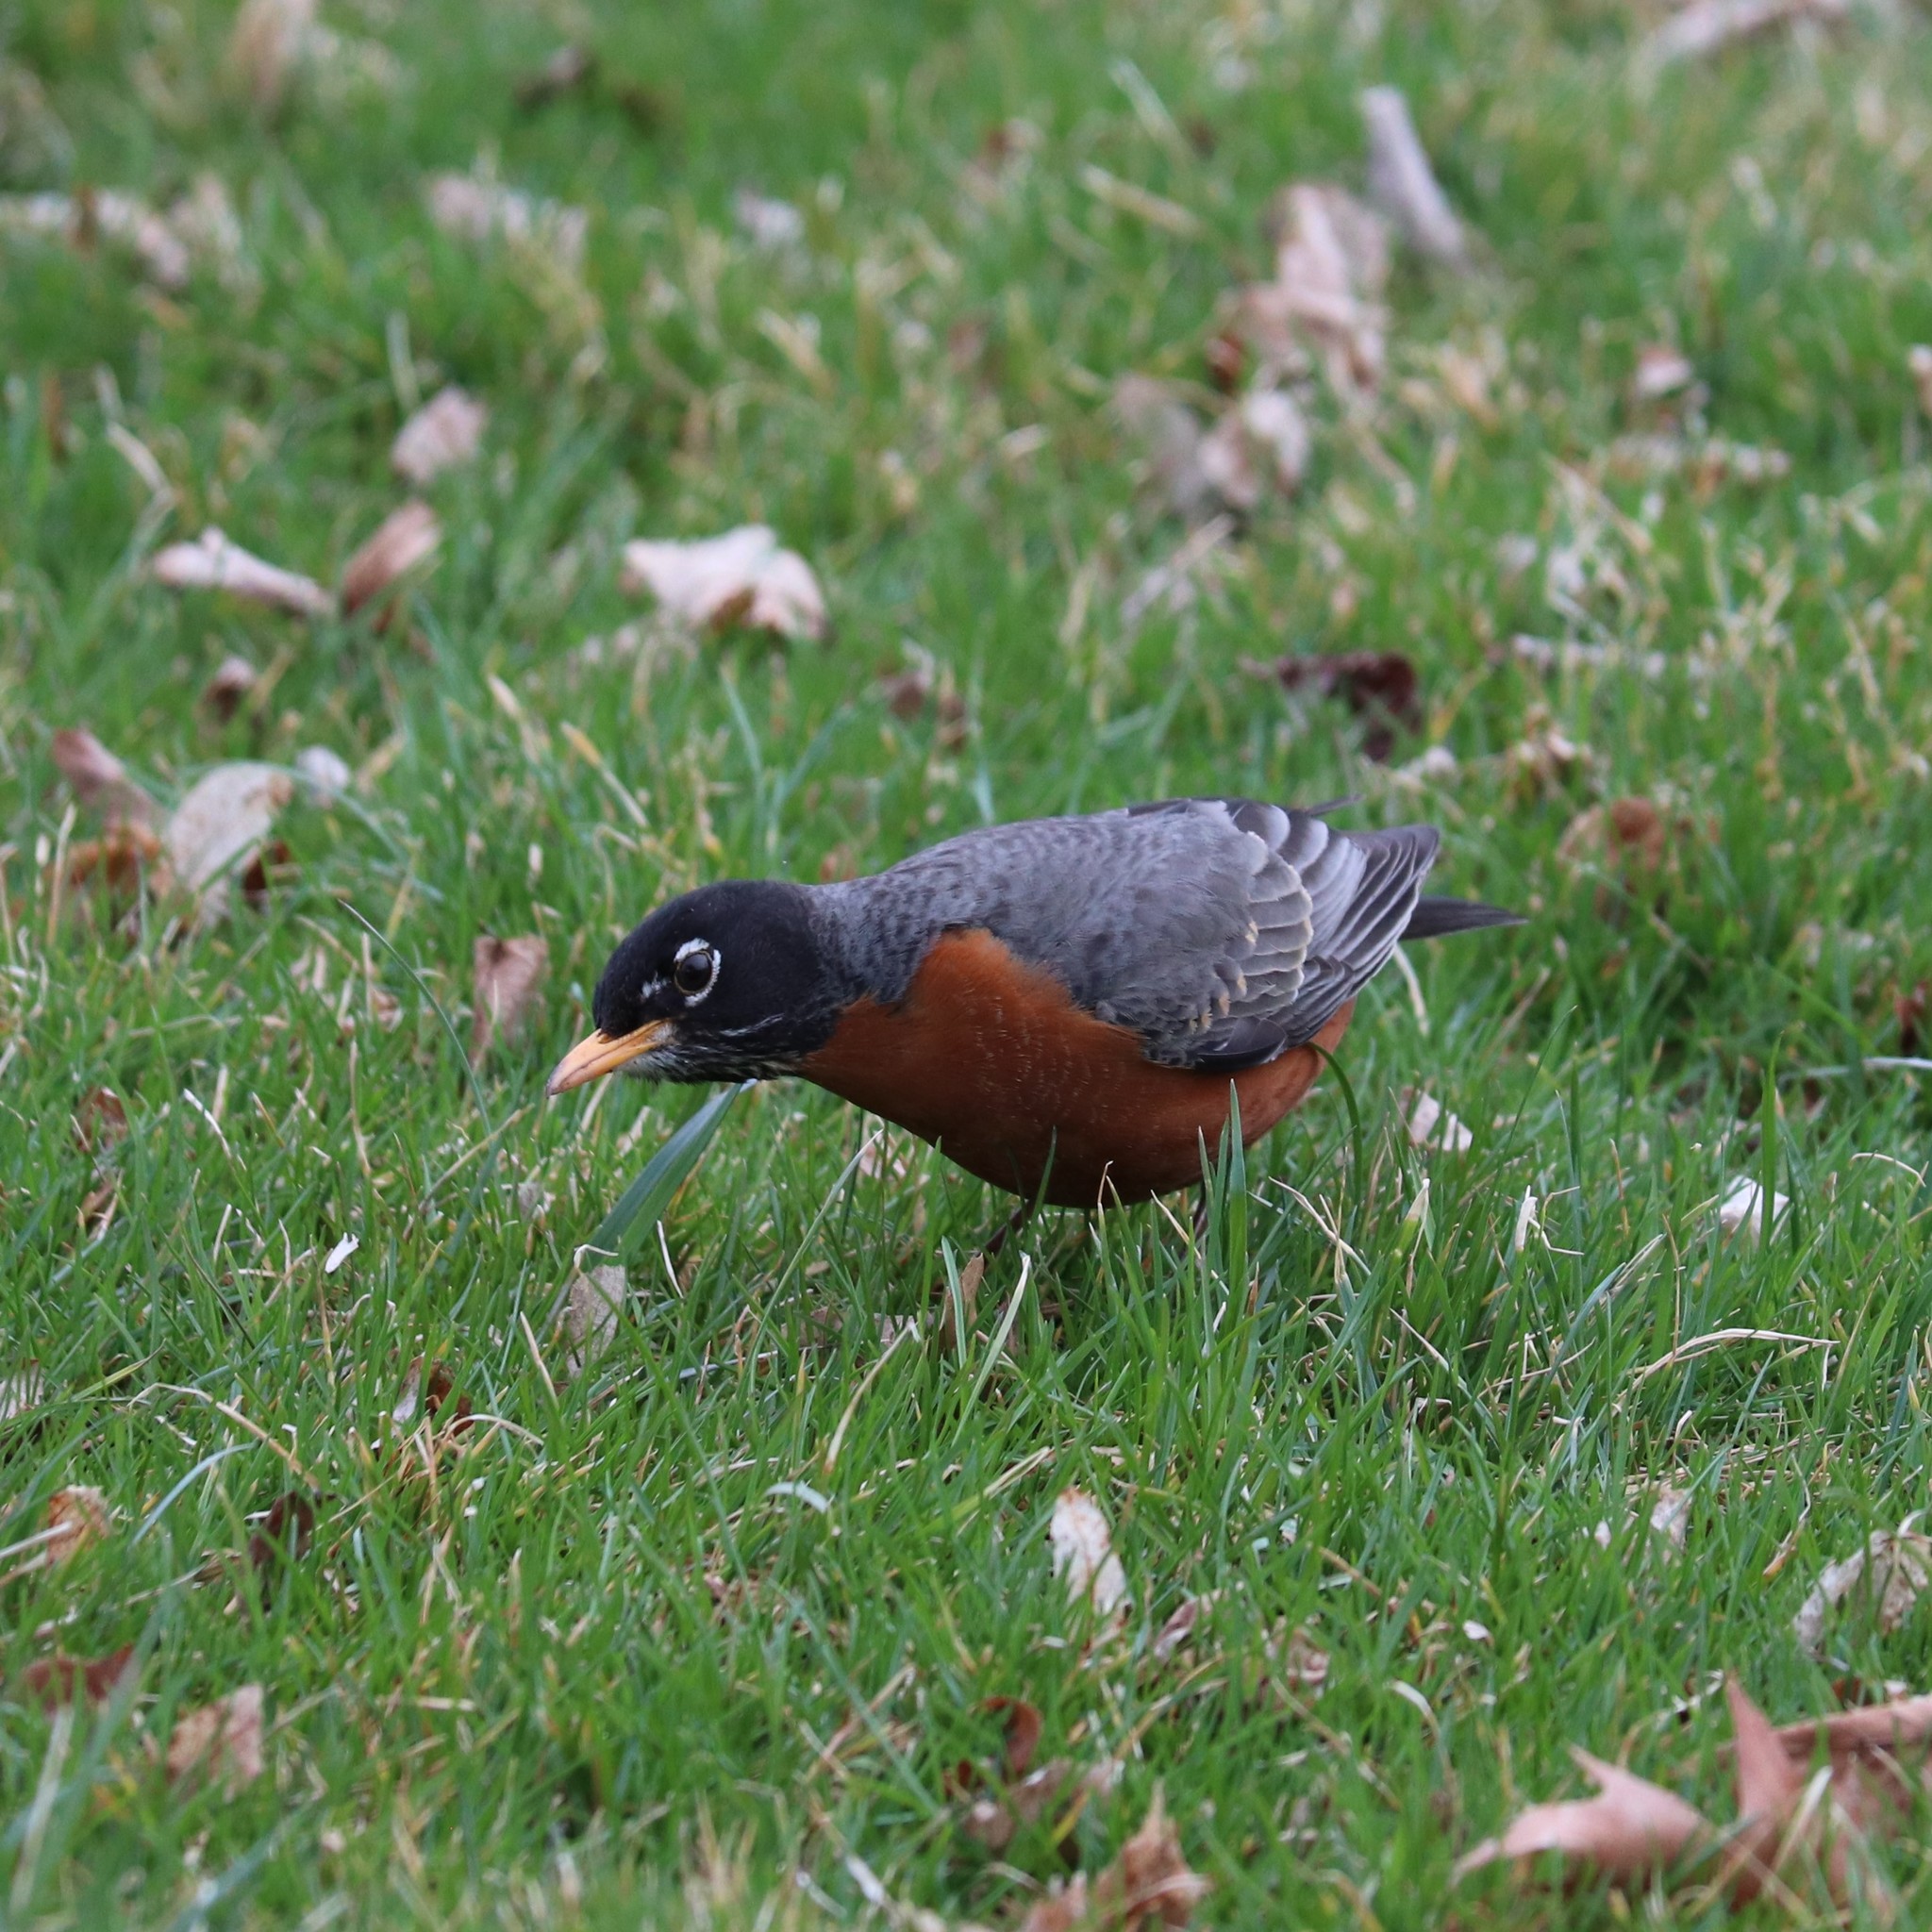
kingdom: Animalia
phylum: Chordata
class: Aves
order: Passeriformes
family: Turdidae
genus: Turdus
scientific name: Turdus migratorius
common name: American robin
